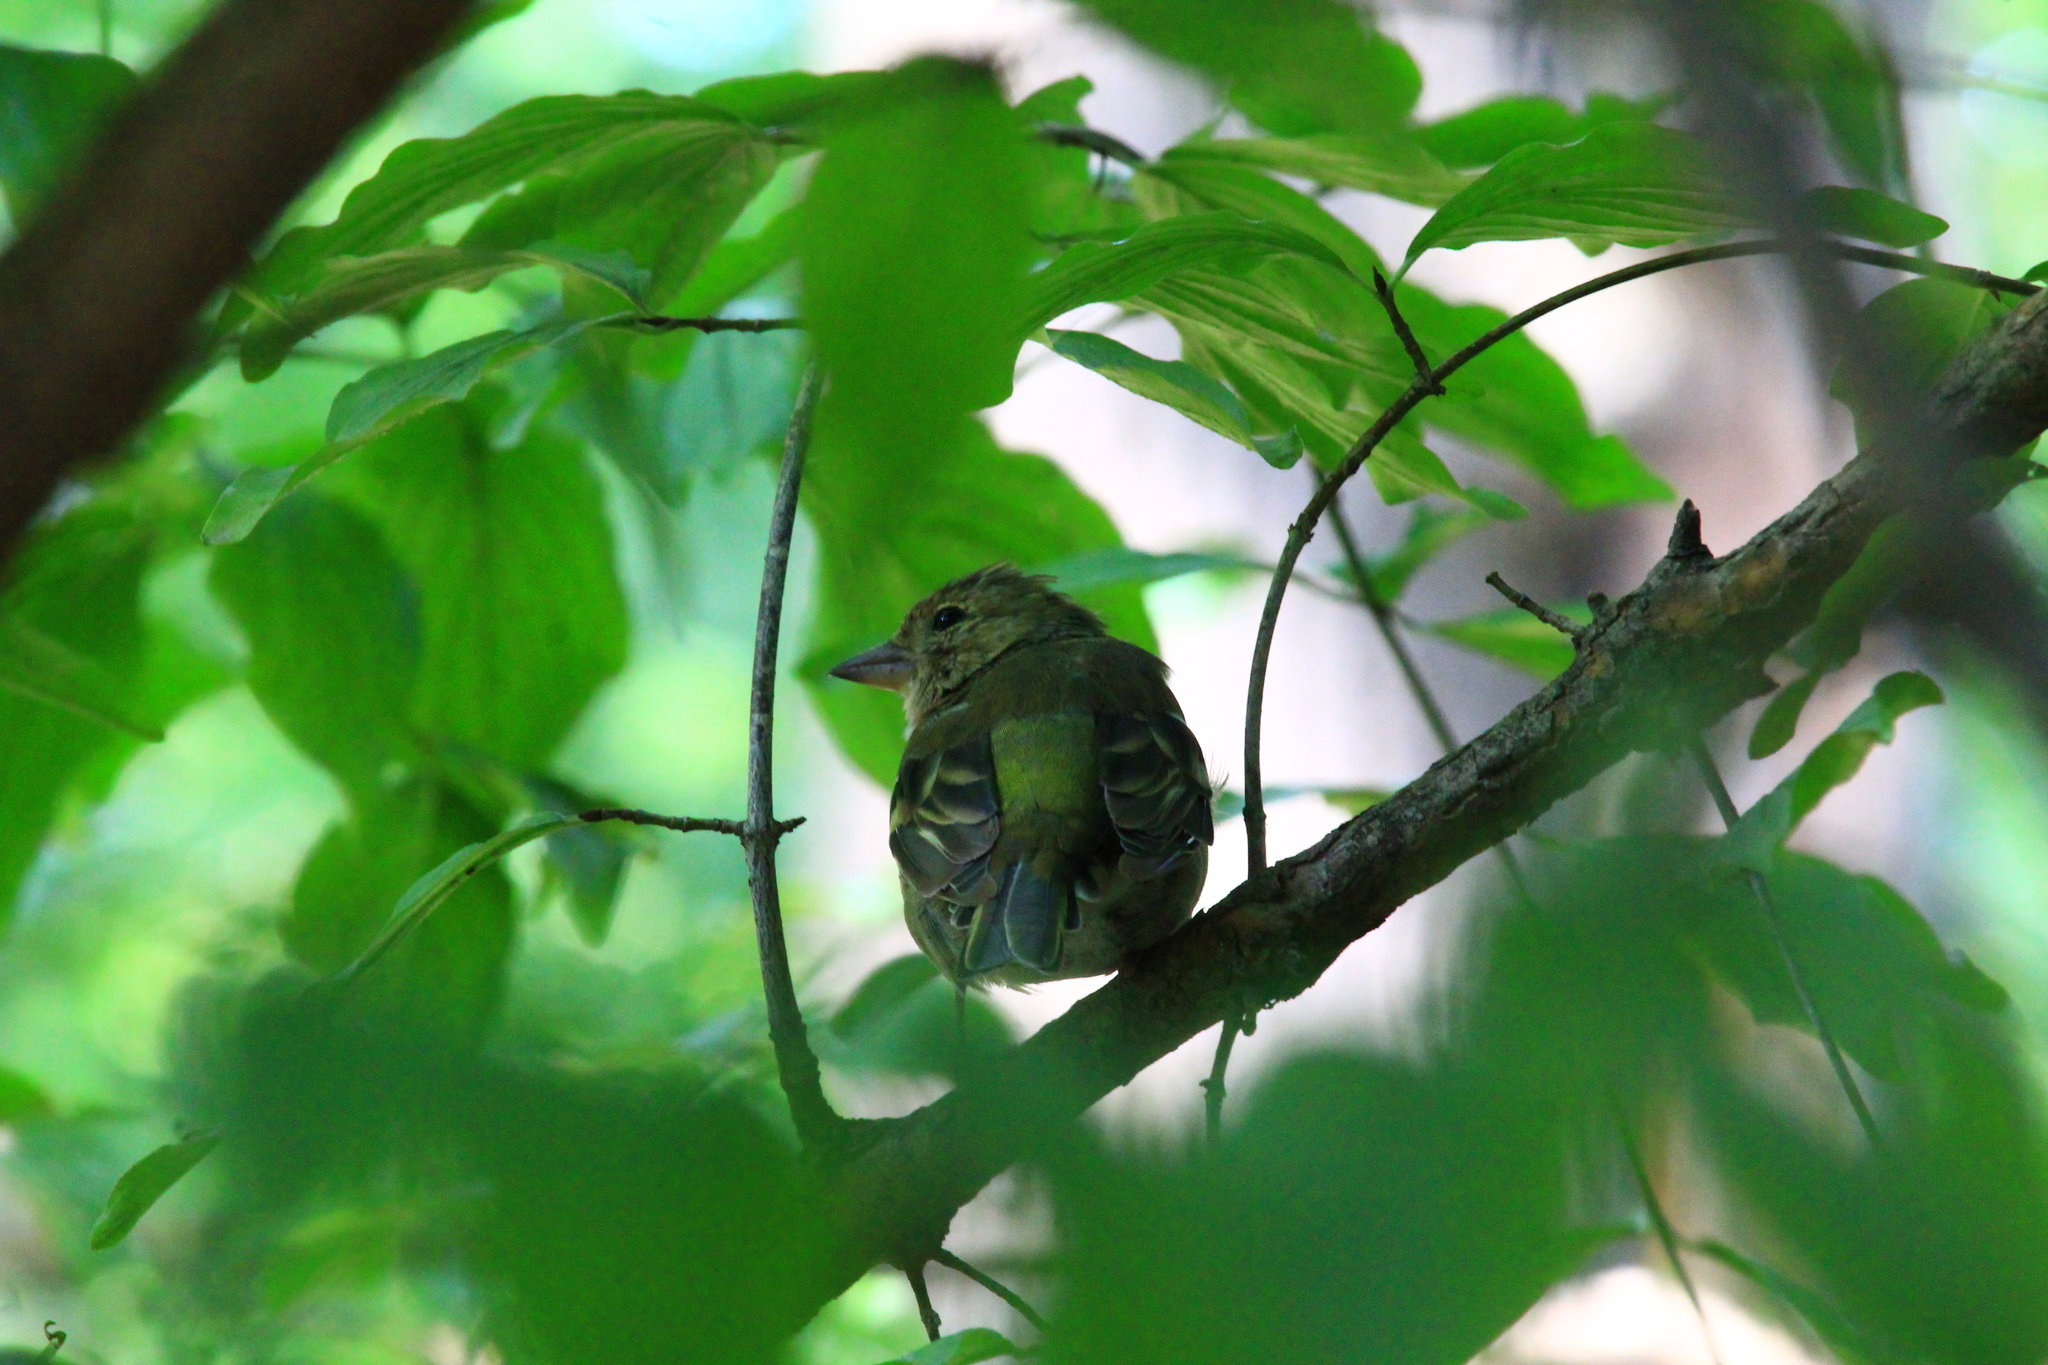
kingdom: Animalia
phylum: Chordata
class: Aves
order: Passeriformes
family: Fringillidae
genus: Fringilla
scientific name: Fringilla coelebs
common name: Common chaffinch
